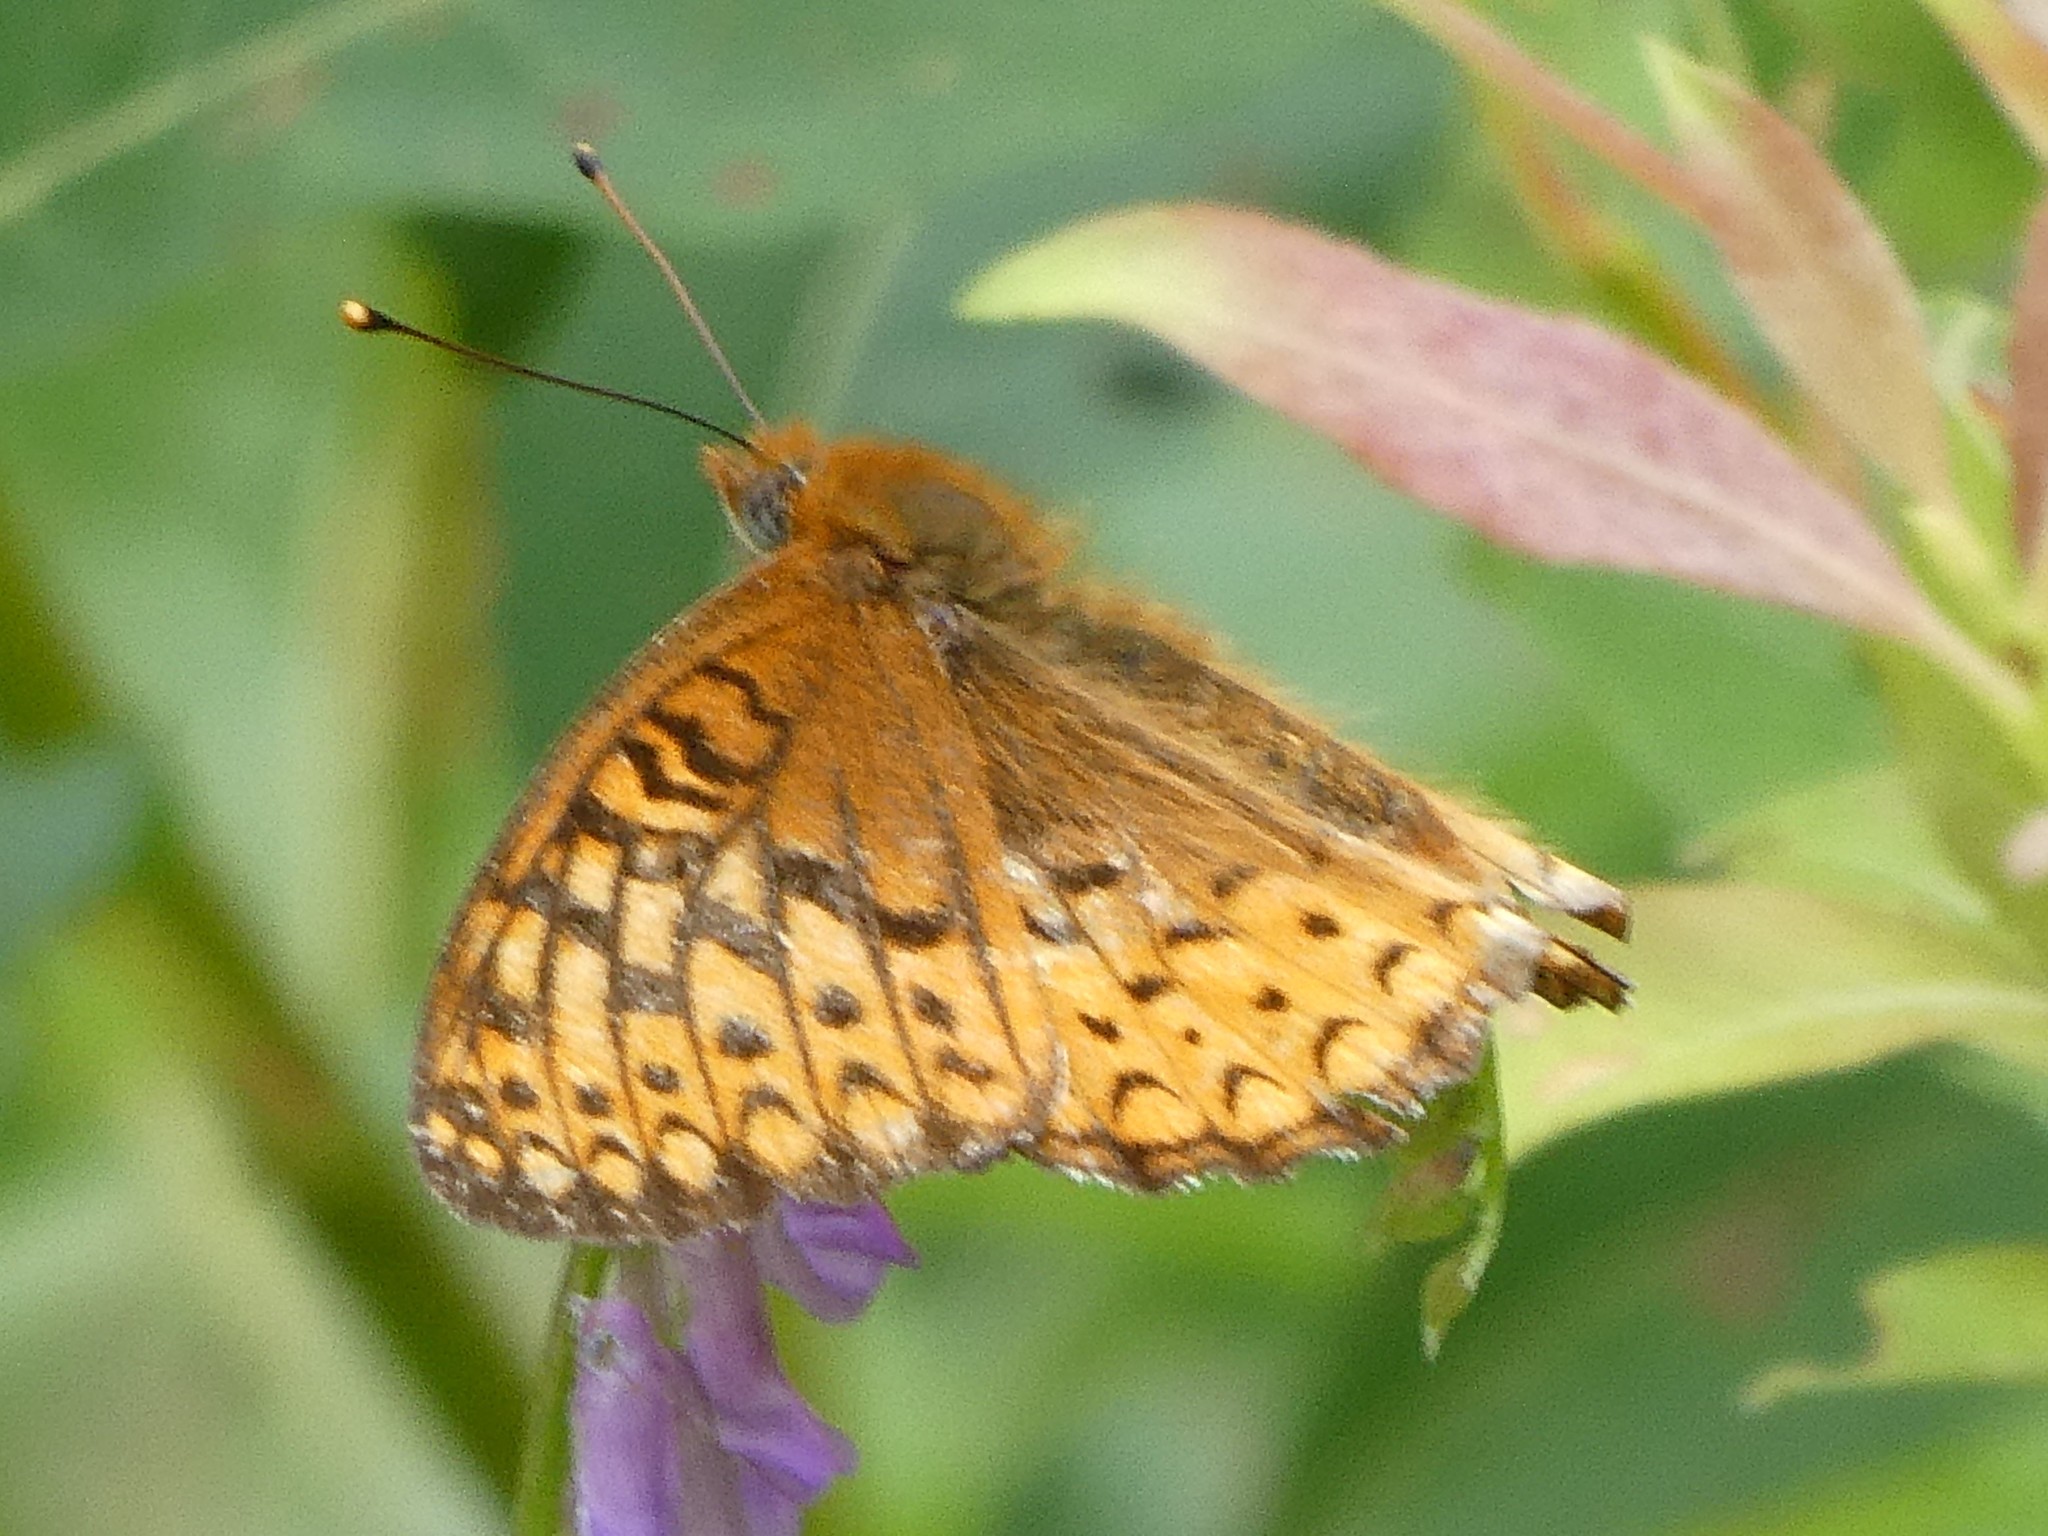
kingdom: Animalia
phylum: Arthropoda
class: Insecta
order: Lepidoptera
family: Nymphalidae
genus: Speyeria
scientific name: Speyeria atlantis
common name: Atlantis fritillary
